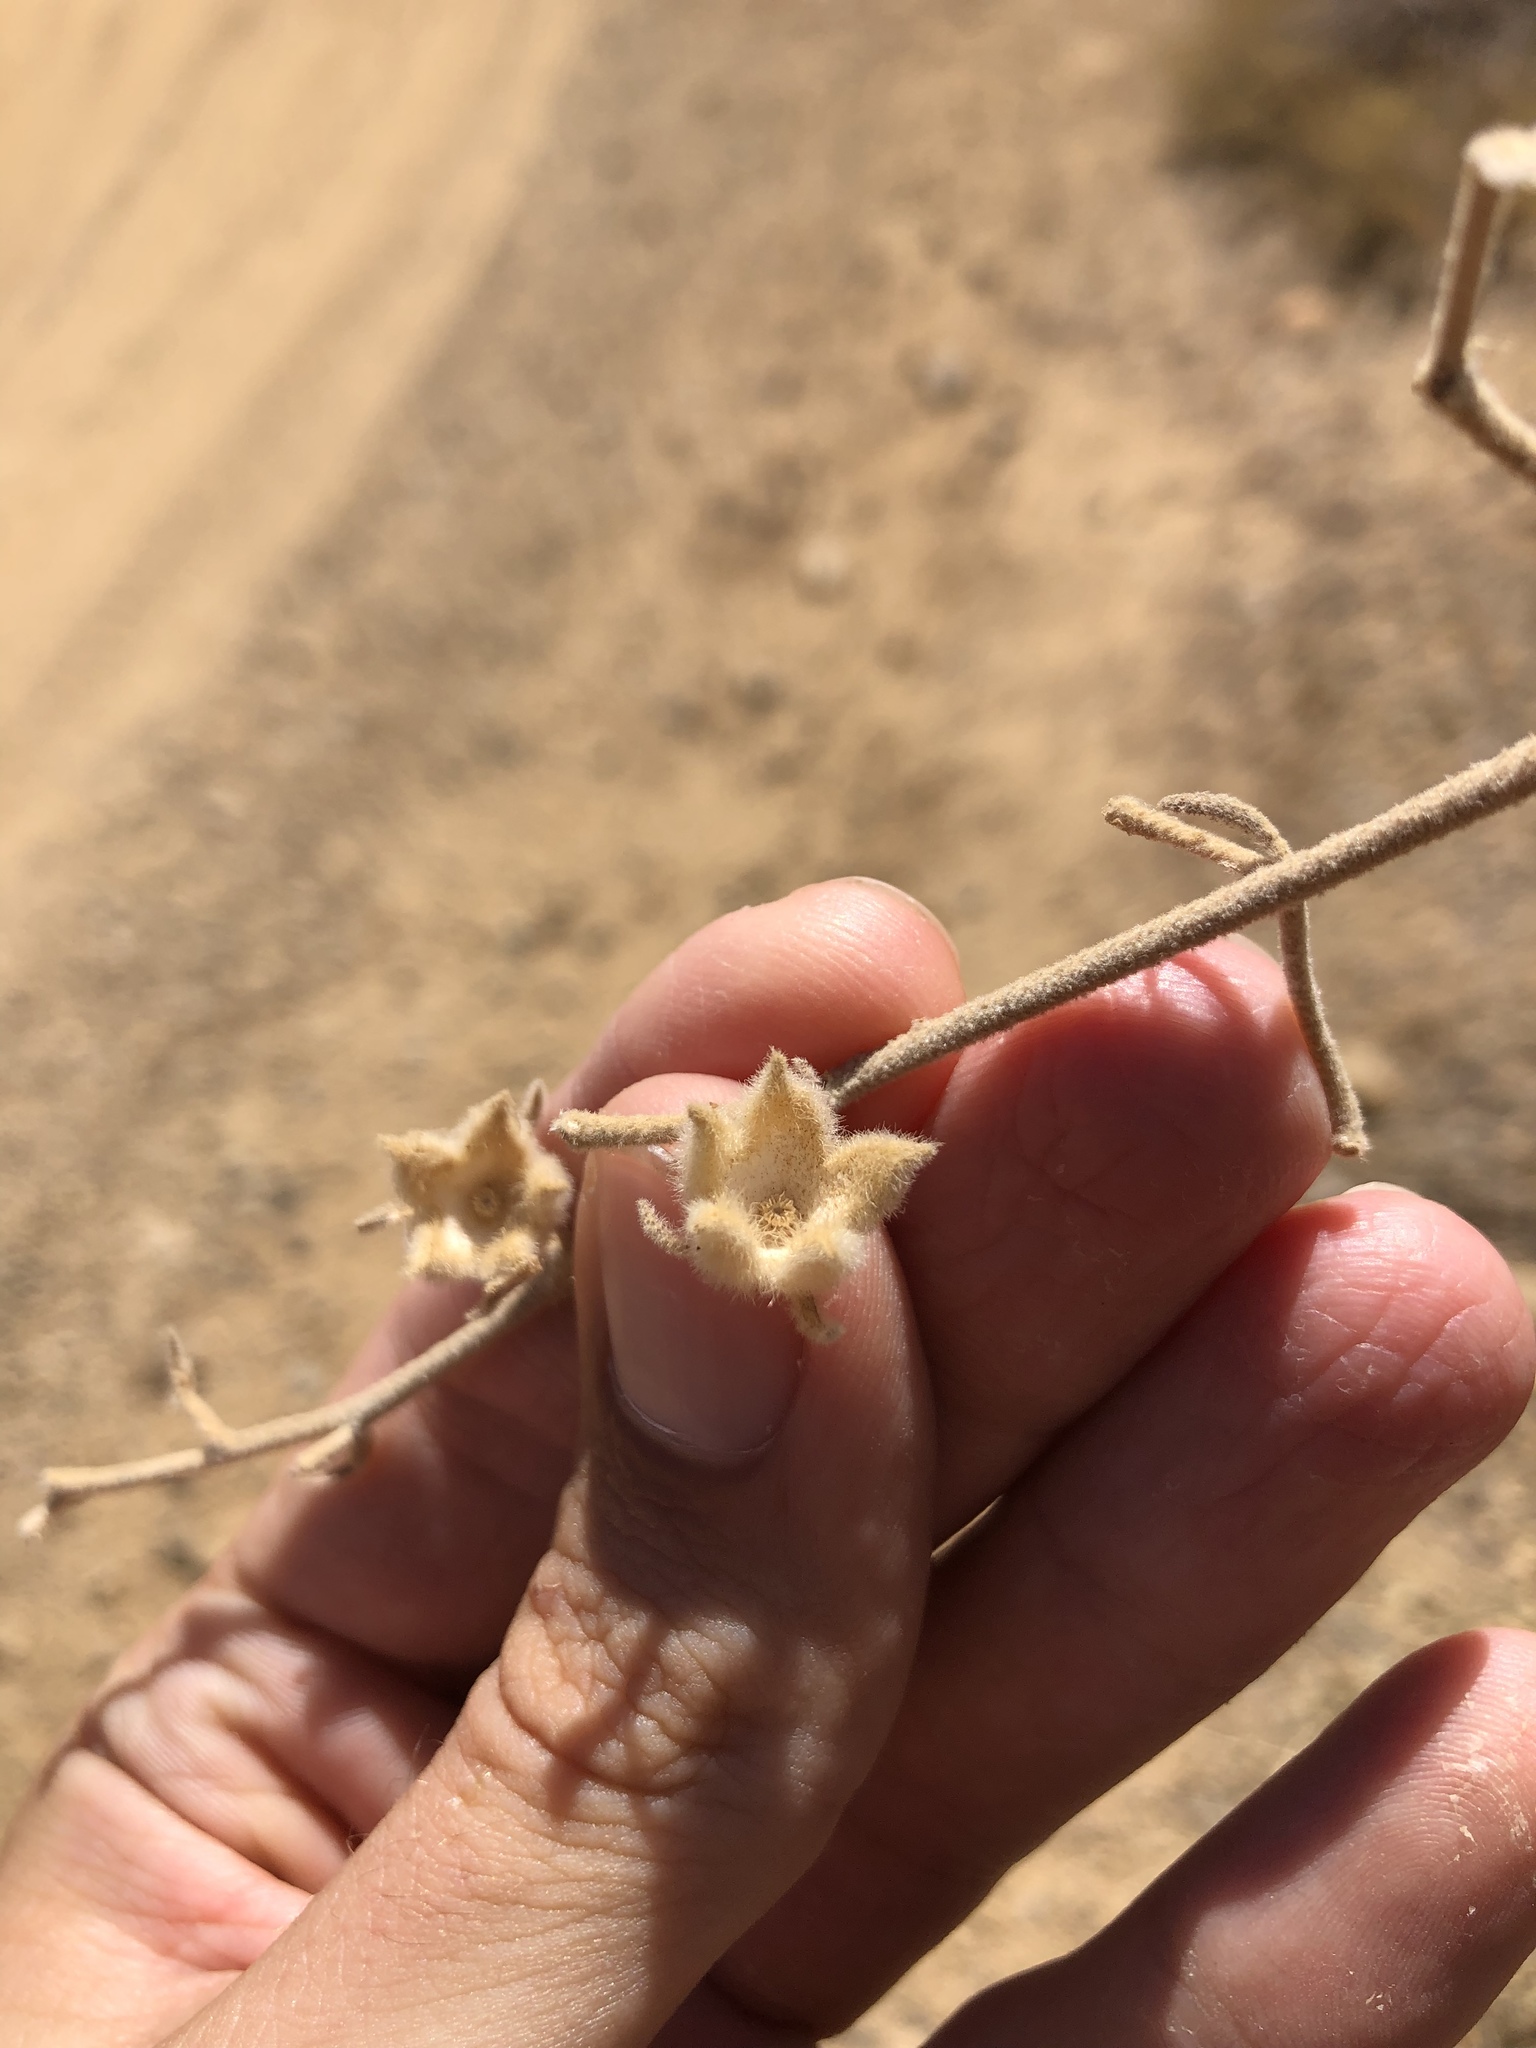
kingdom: Plantae
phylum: Tracheophyta
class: Magnoliopsida
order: Malvales
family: Malvaceae
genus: Malacothamnus
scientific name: Malacothamnus jonesii
